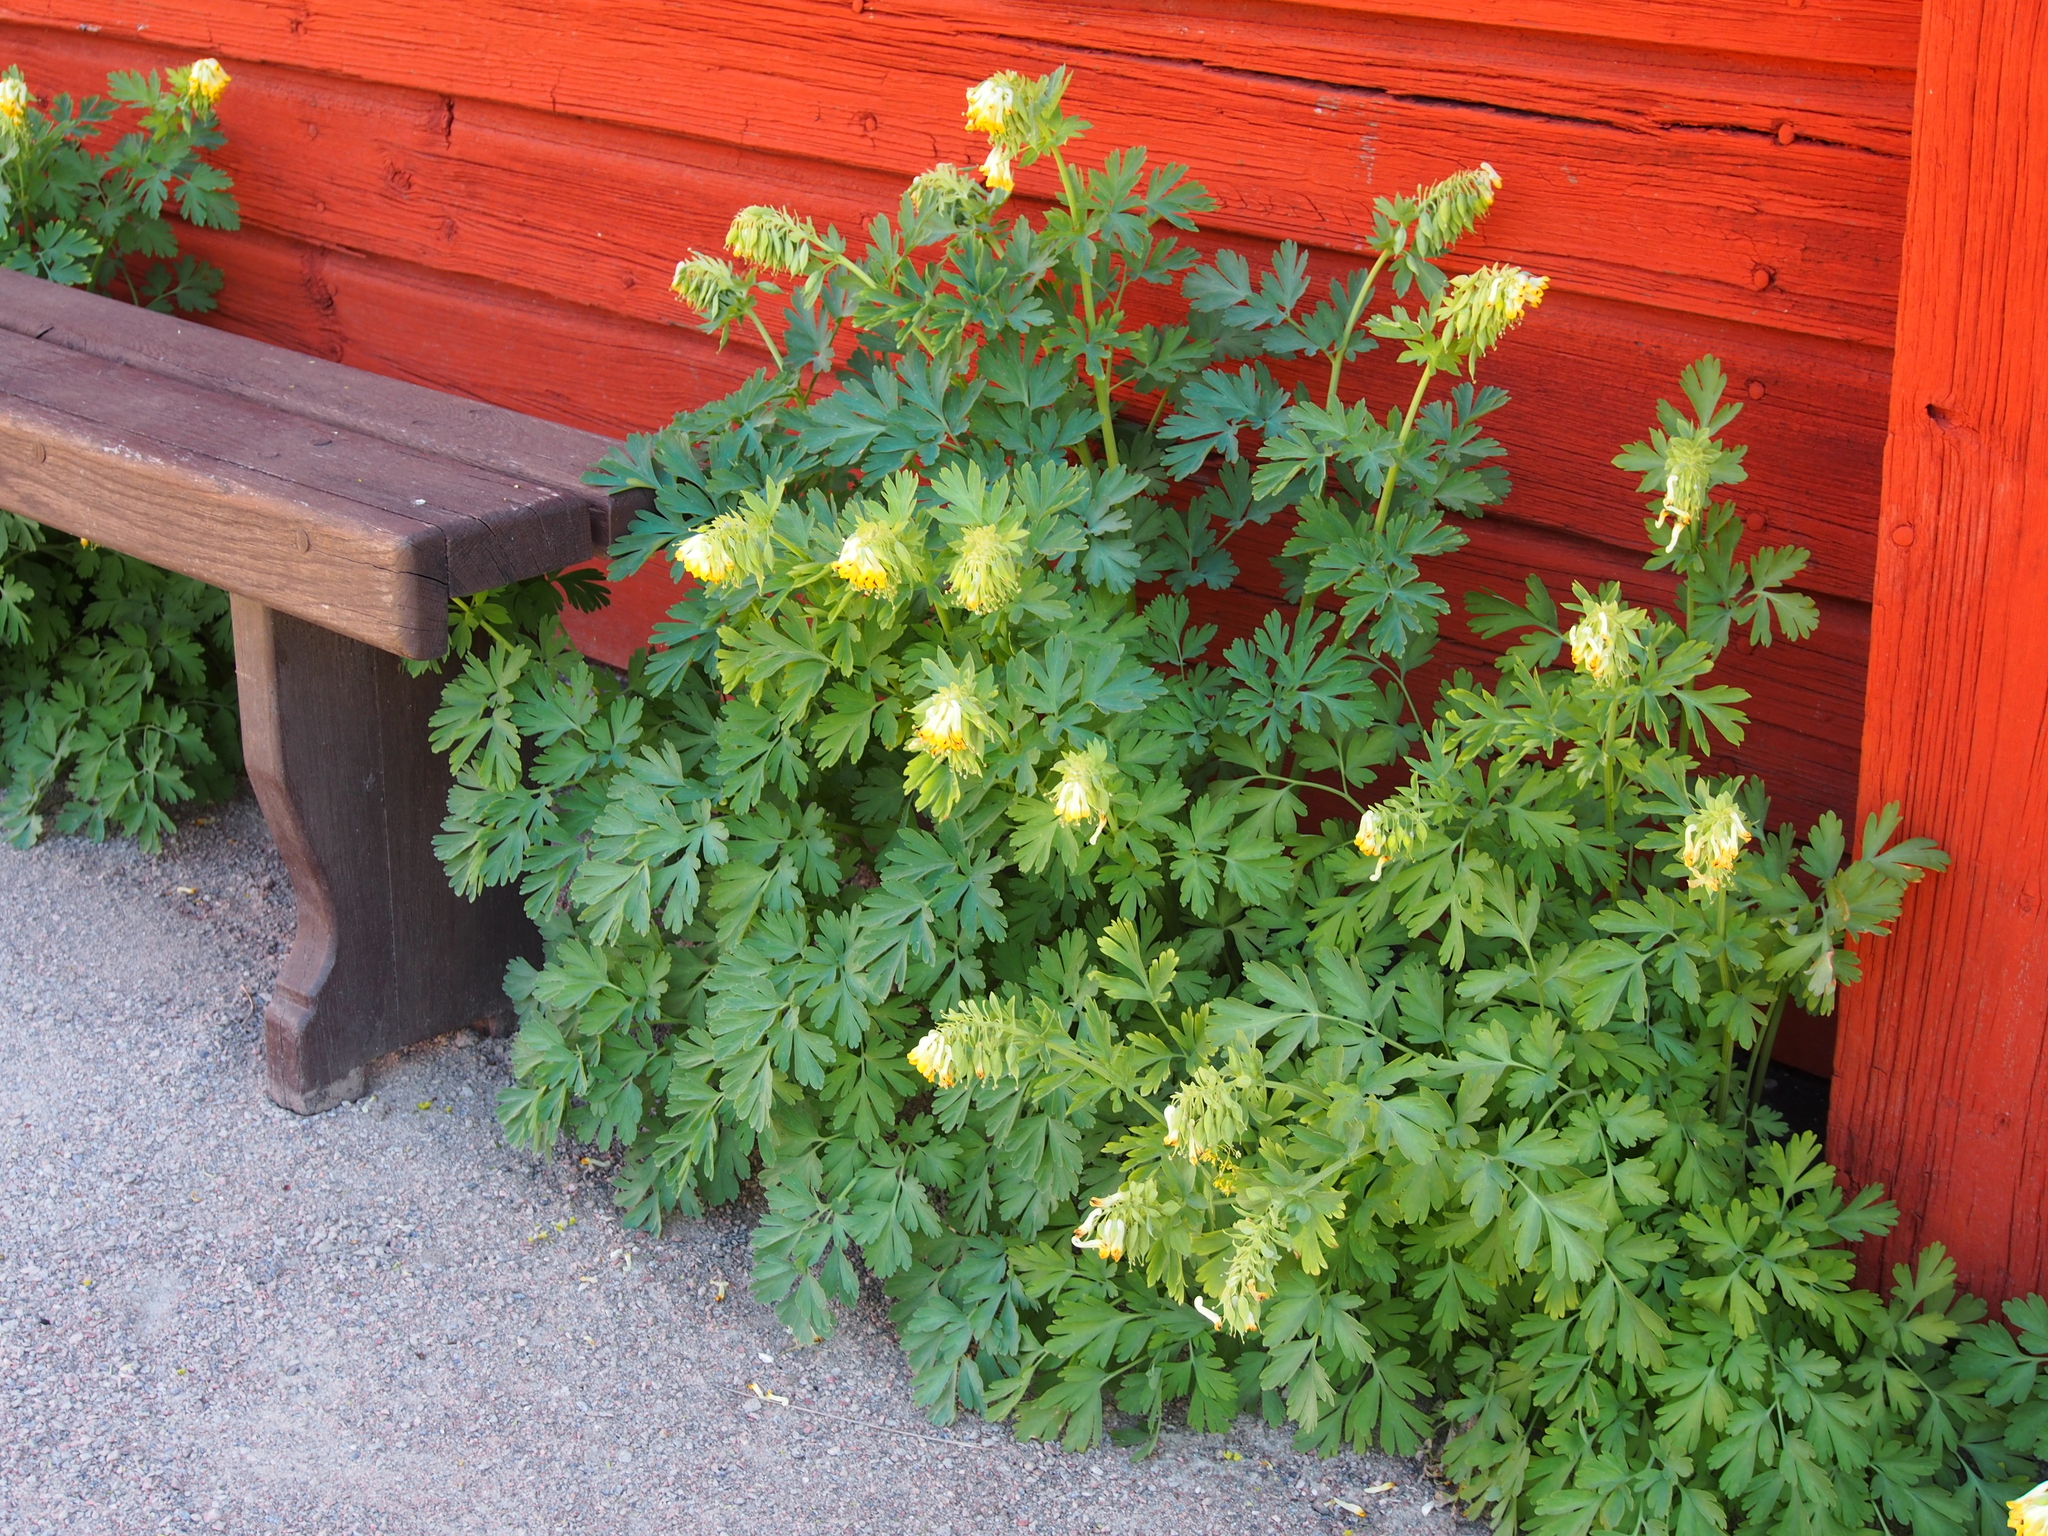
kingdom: Plantae
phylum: Tracheophyta
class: Magnoliopsida
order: Ranunculales
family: Papaveraceae
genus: Corydalis
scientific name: Corydalis nobilis
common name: Siberian corydalis
